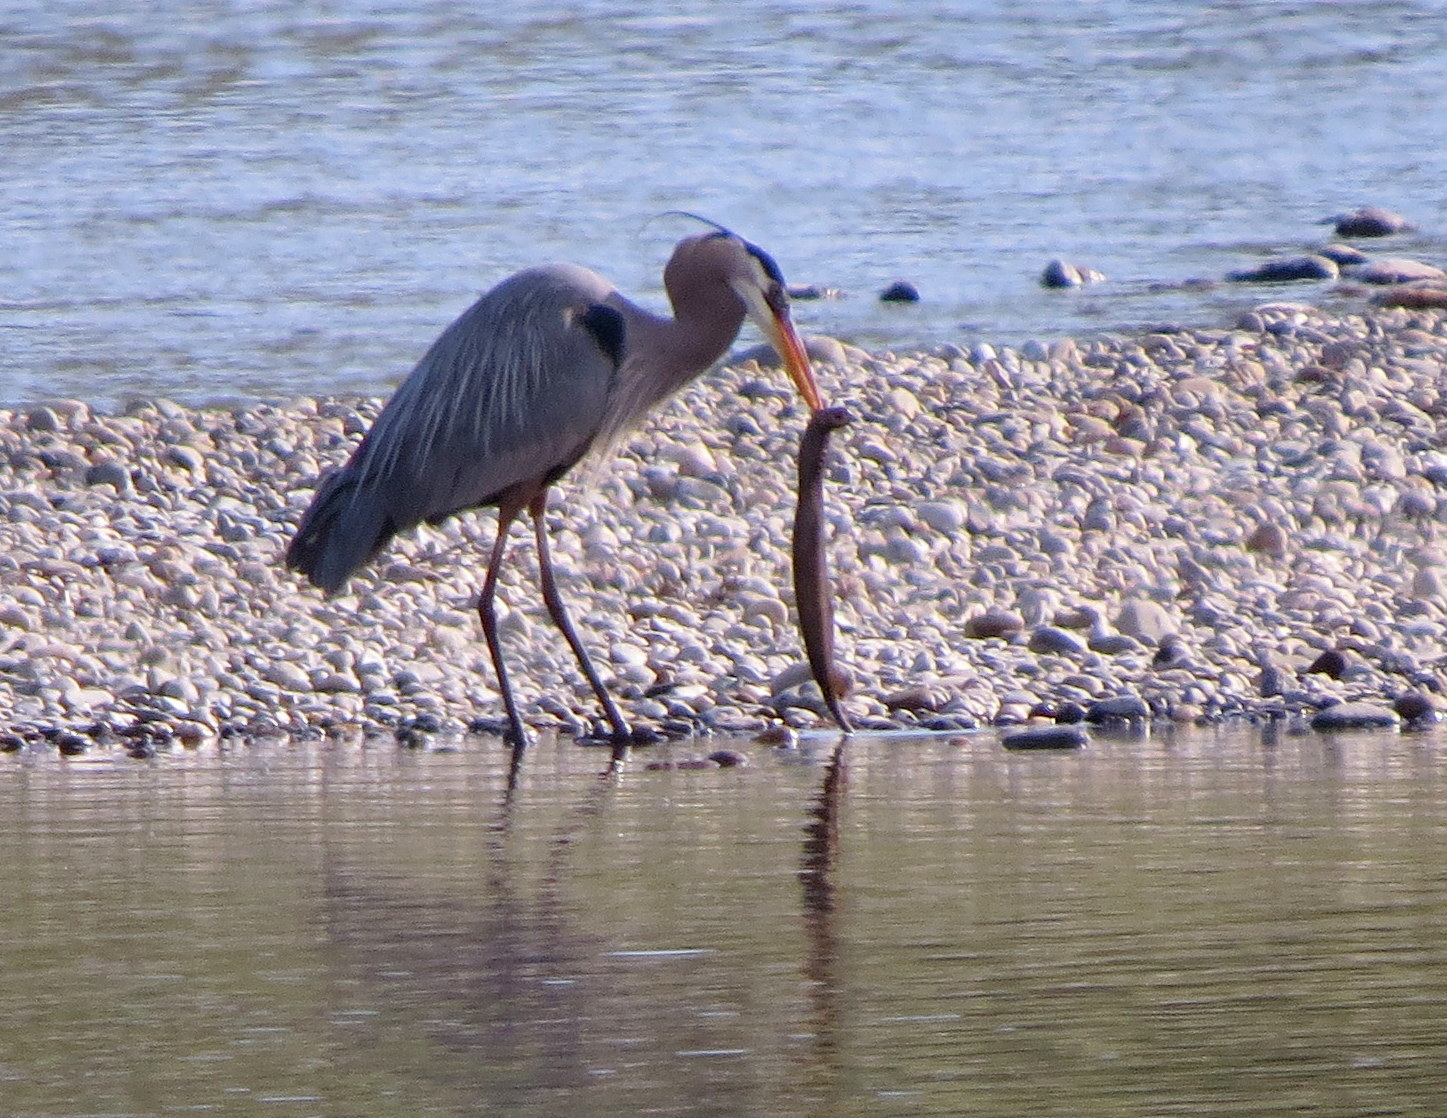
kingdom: Animalia
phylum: Chordata
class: Petromyzonti
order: Petromyzontiformes
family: Petromyzontidae
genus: Entosphenus
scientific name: Entosphenus tridentatus
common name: Pacific lamprey
